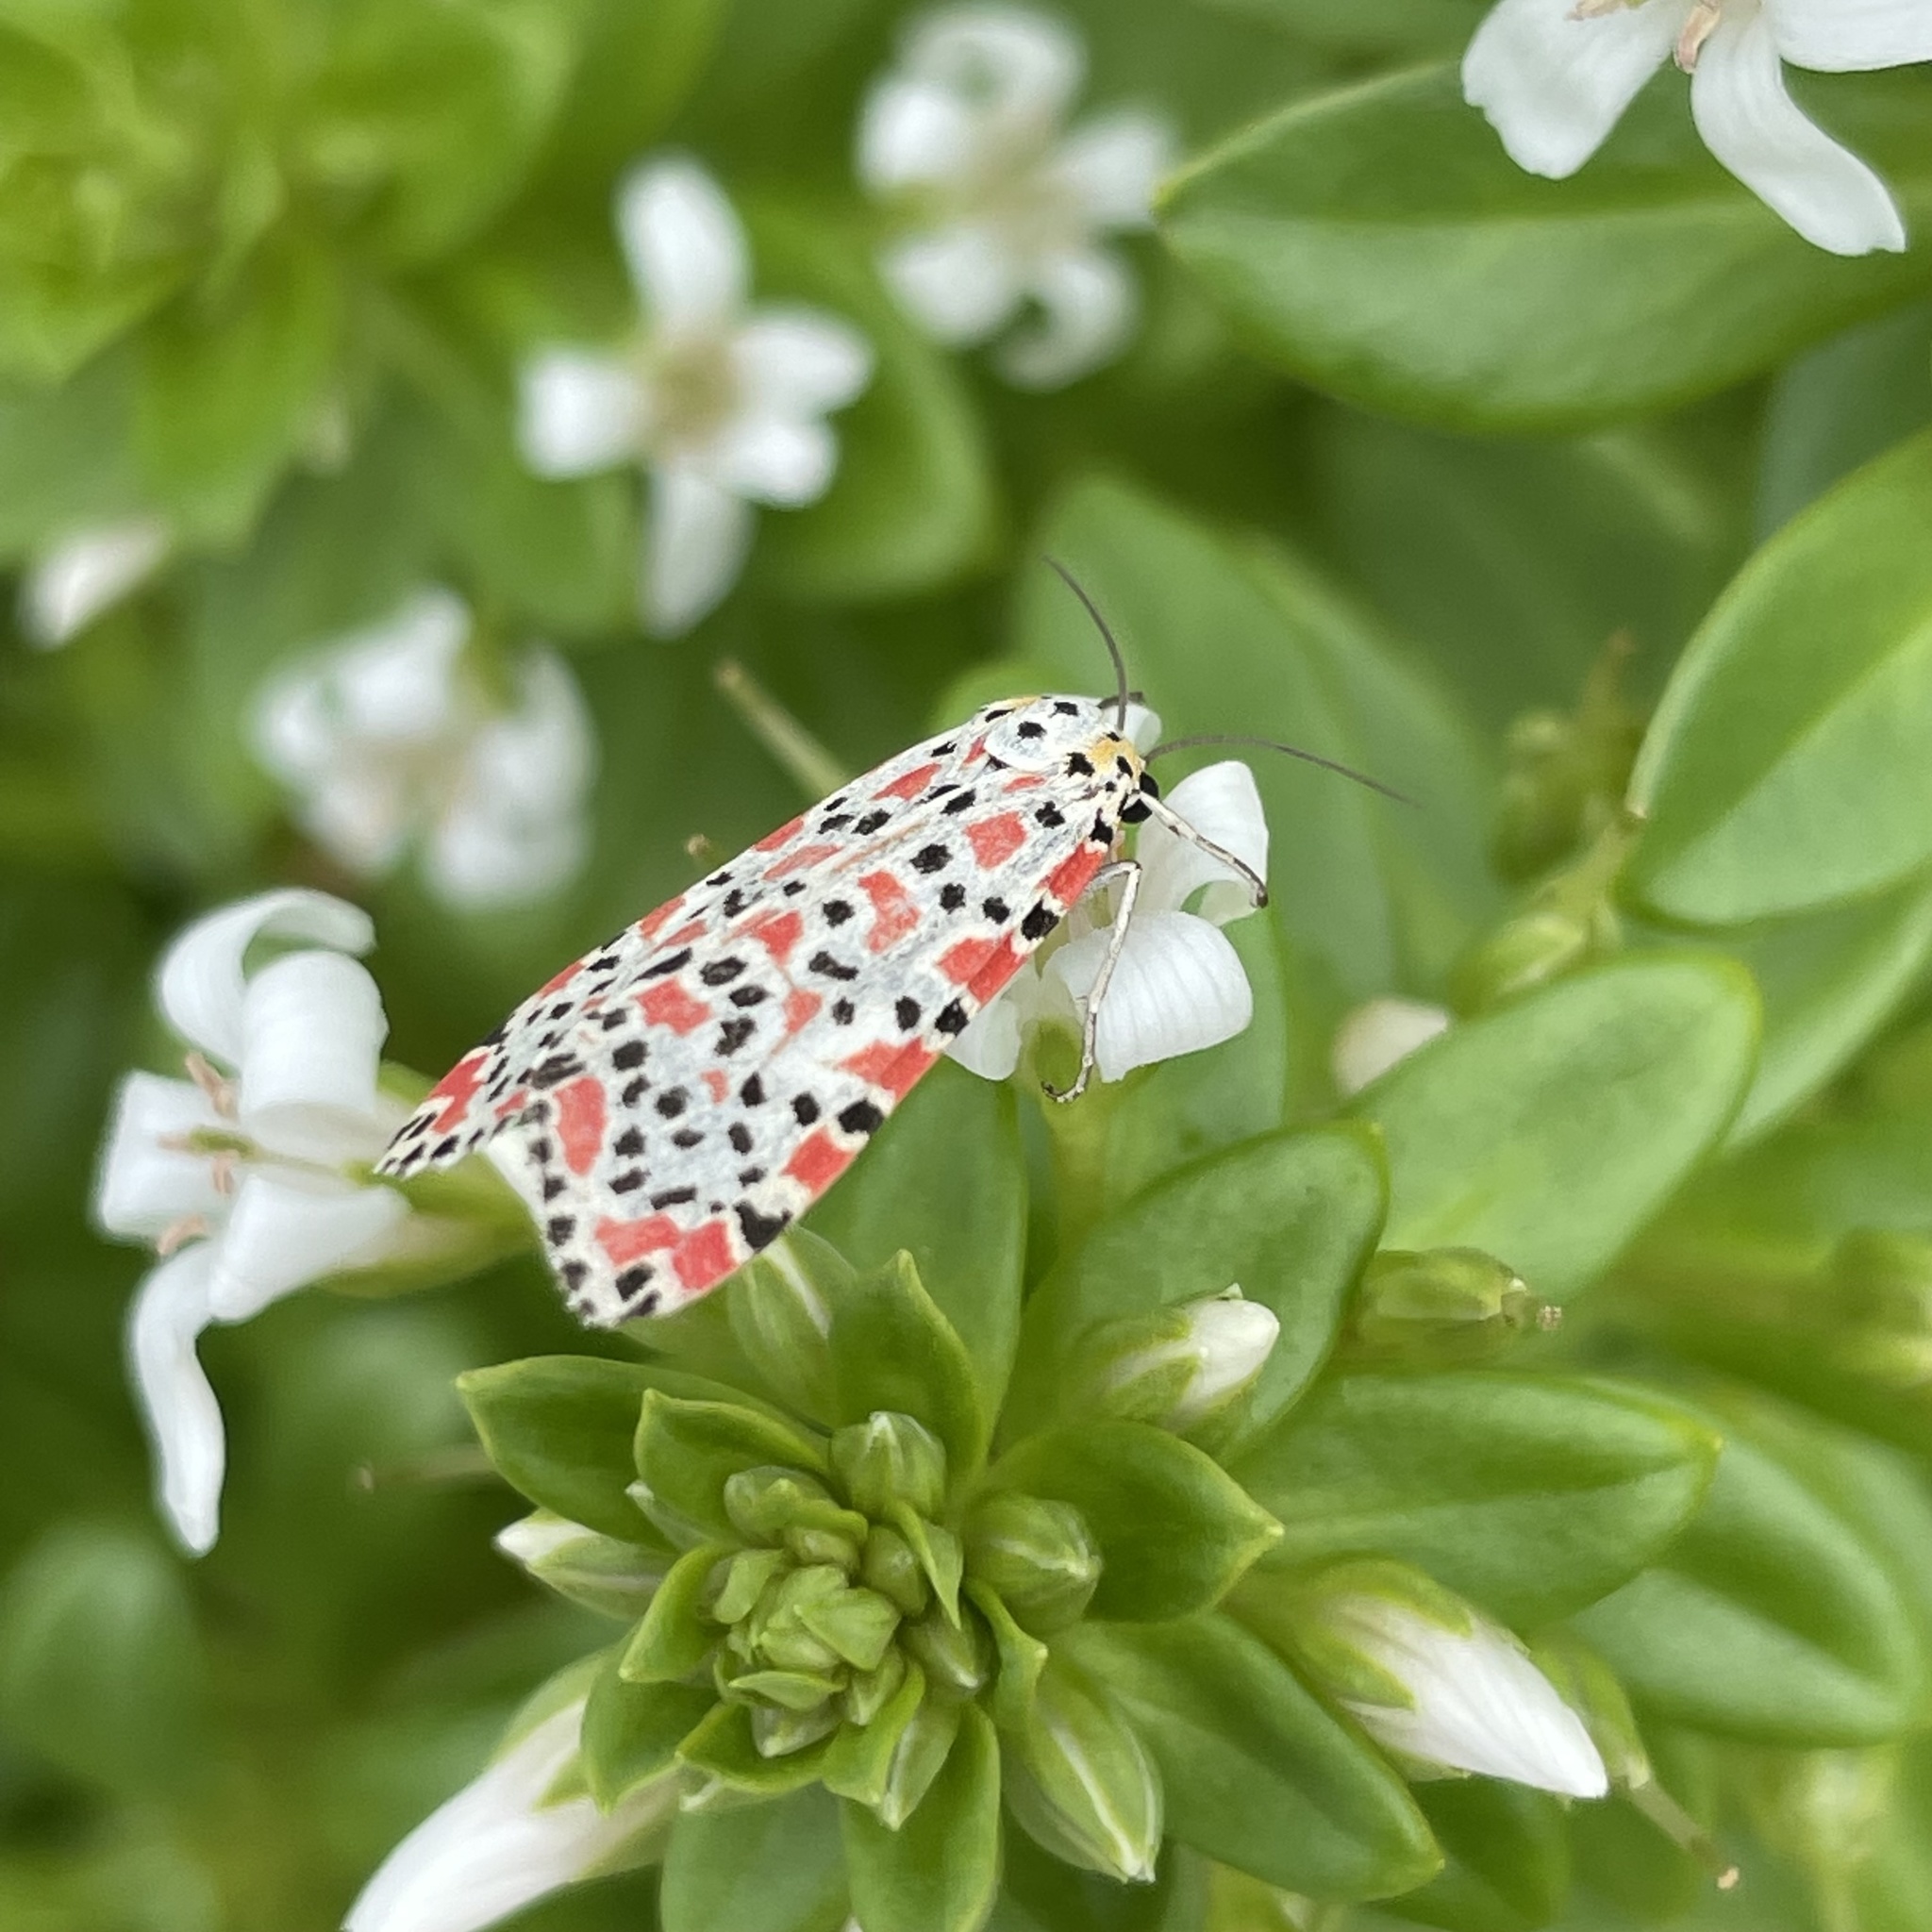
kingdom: Animalia
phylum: Arthropoda
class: Insecta
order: Lepidoptera
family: Erebidae
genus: Utetheisa
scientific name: Utetheisa lotrix
